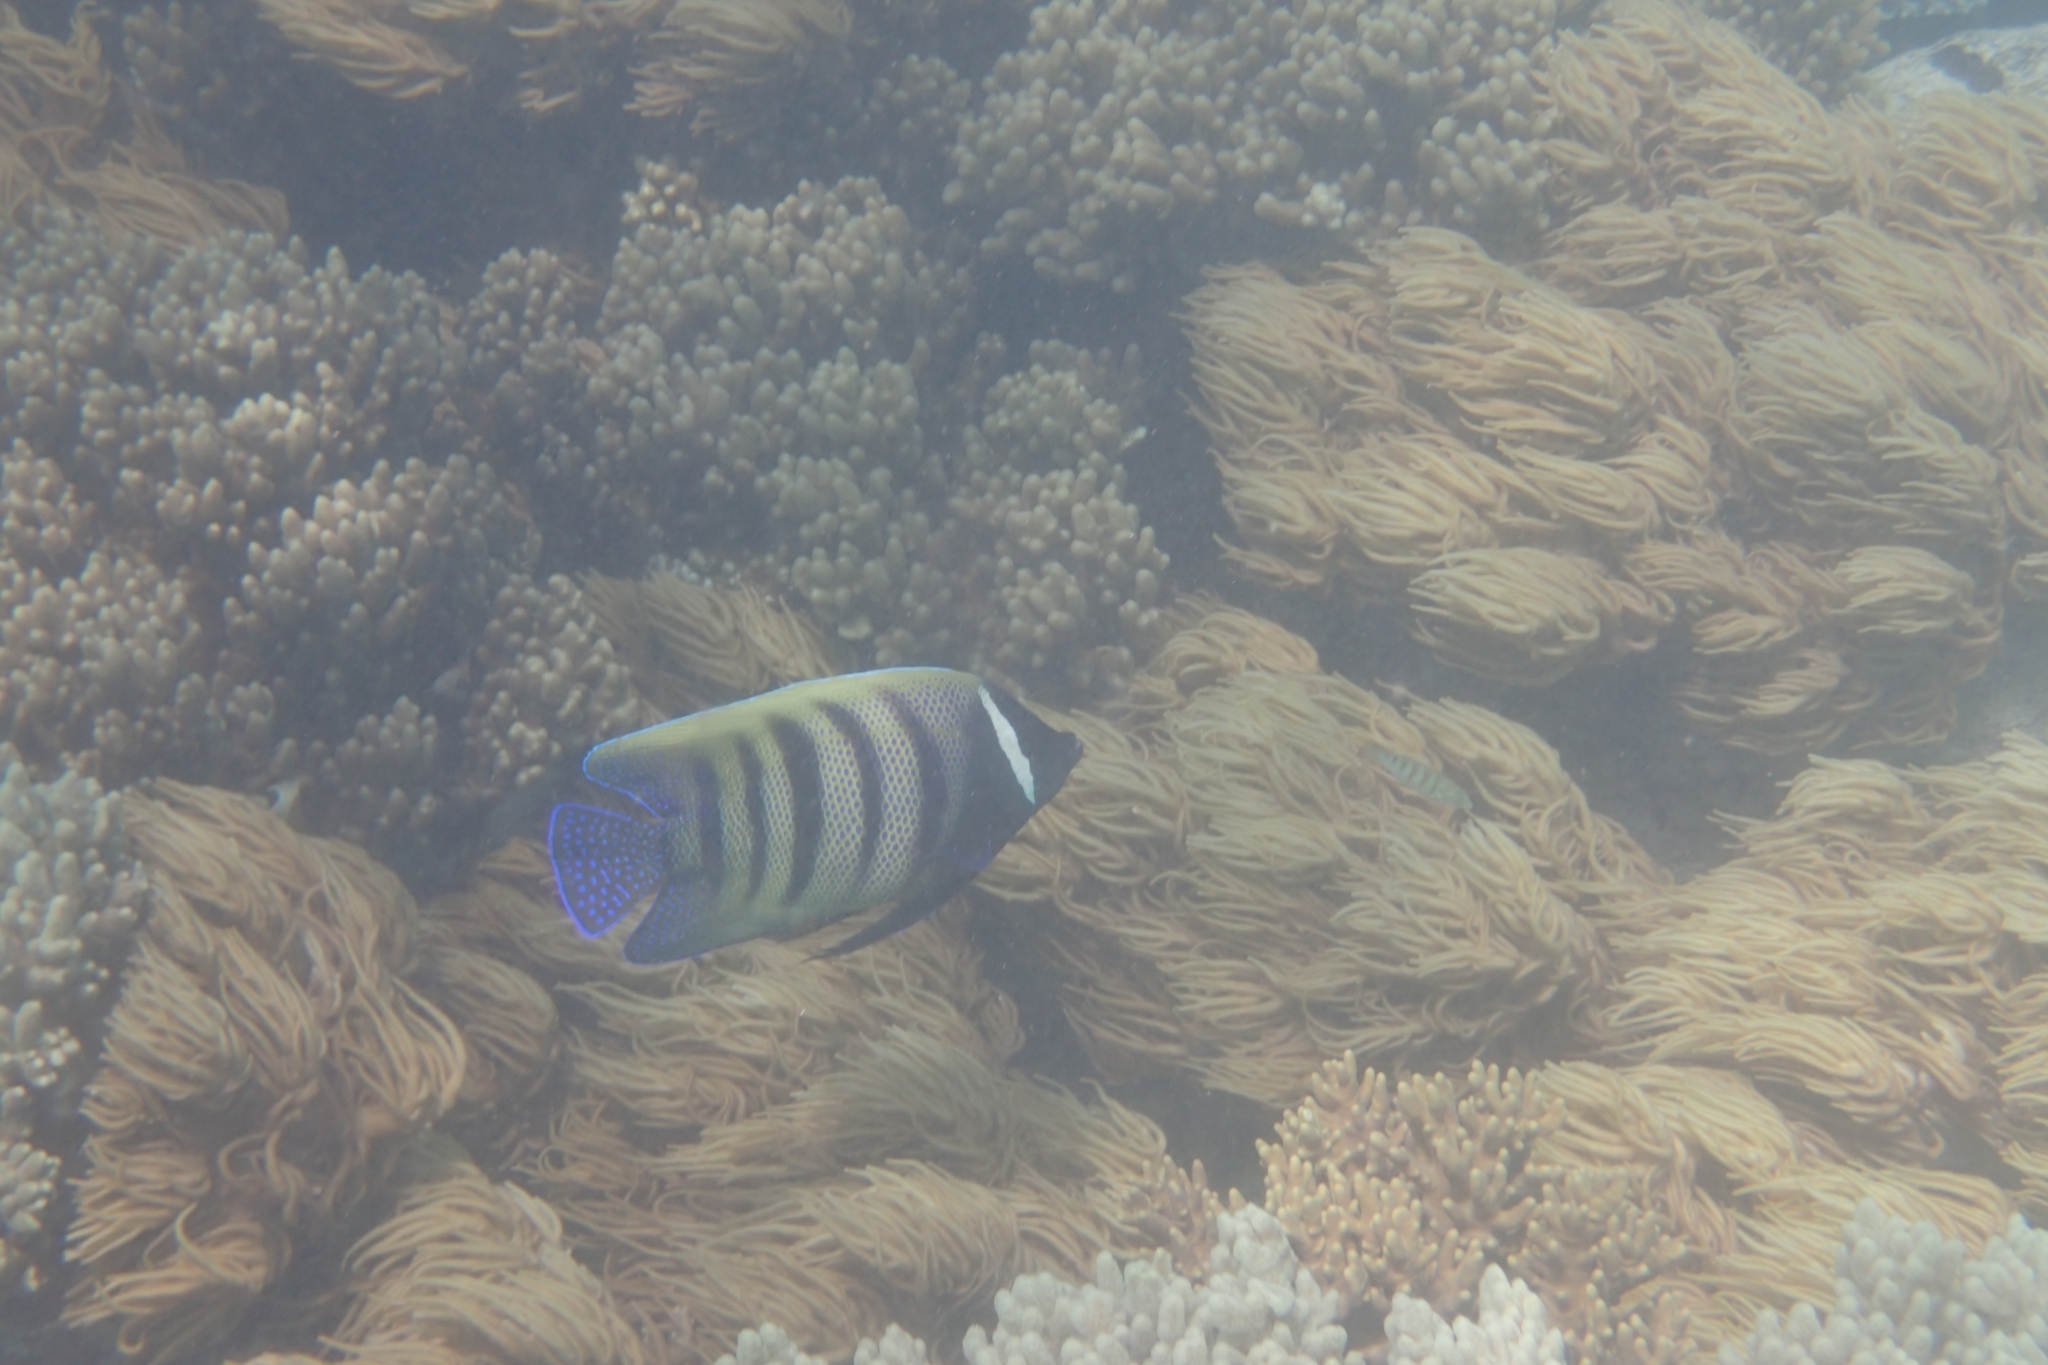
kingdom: Animalia
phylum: Chordata
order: Perciformes
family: Pomacanthidae
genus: Pomacanthus
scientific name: Pomacanthus sexstriatus
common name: Six-banded angelfish
